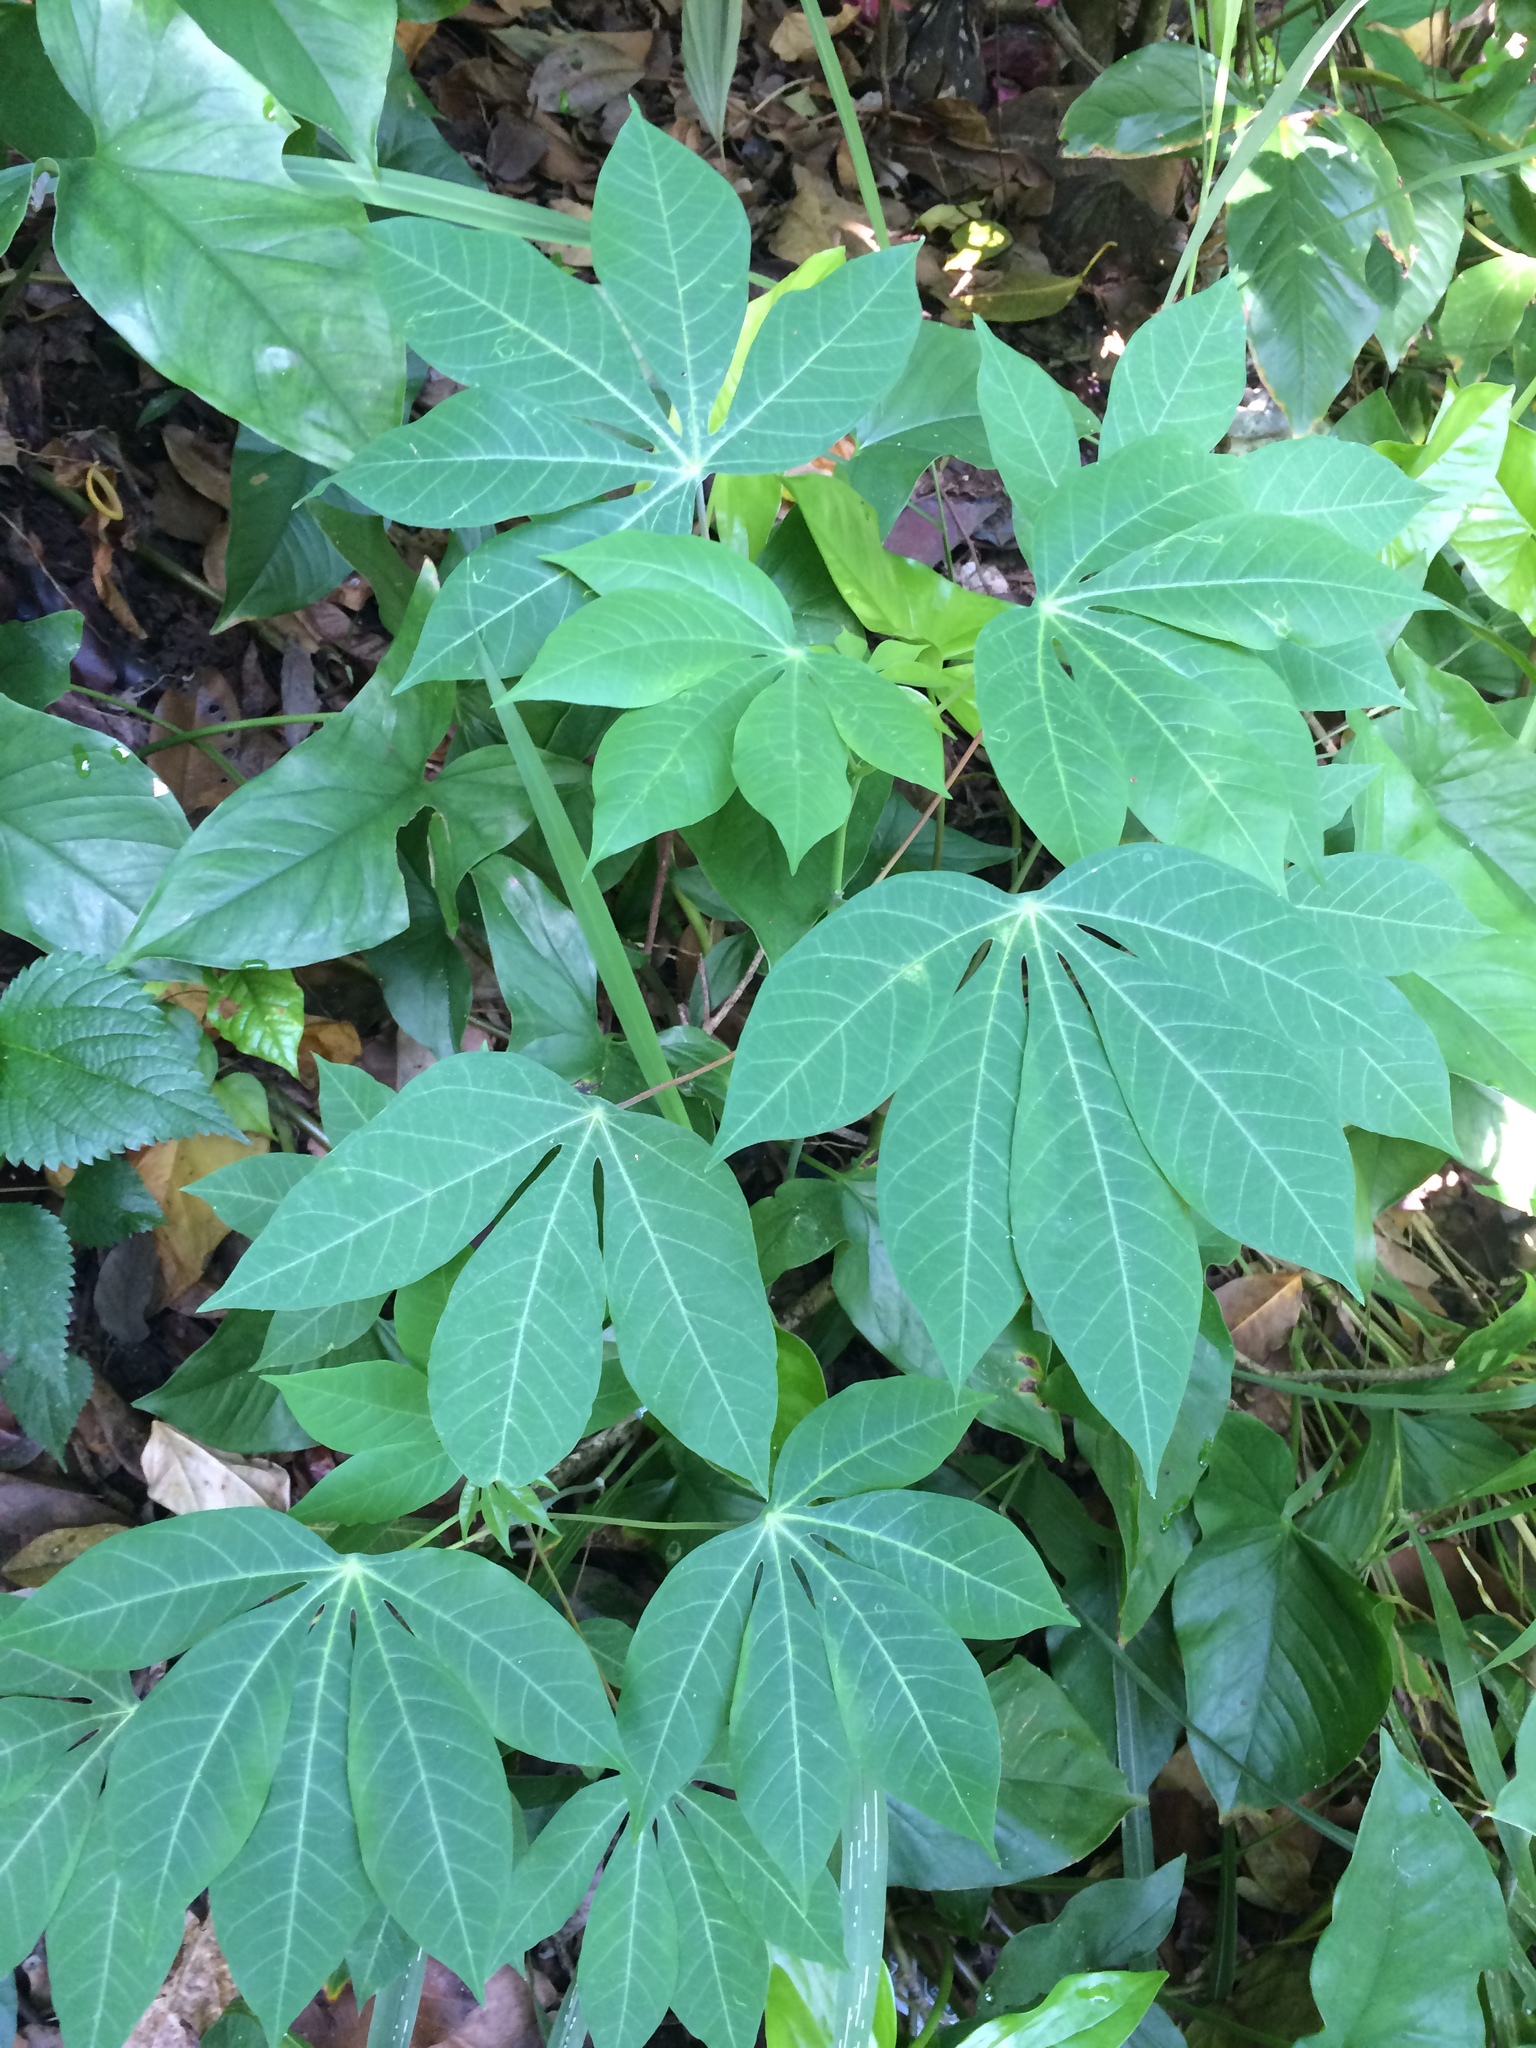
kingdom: Plantae
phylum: Tracheophyta
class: Magnoliopsida
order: Malpighiales
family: Euphorbiaceae
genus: Manihot
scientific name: Manihot esculenta
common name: Cassava
